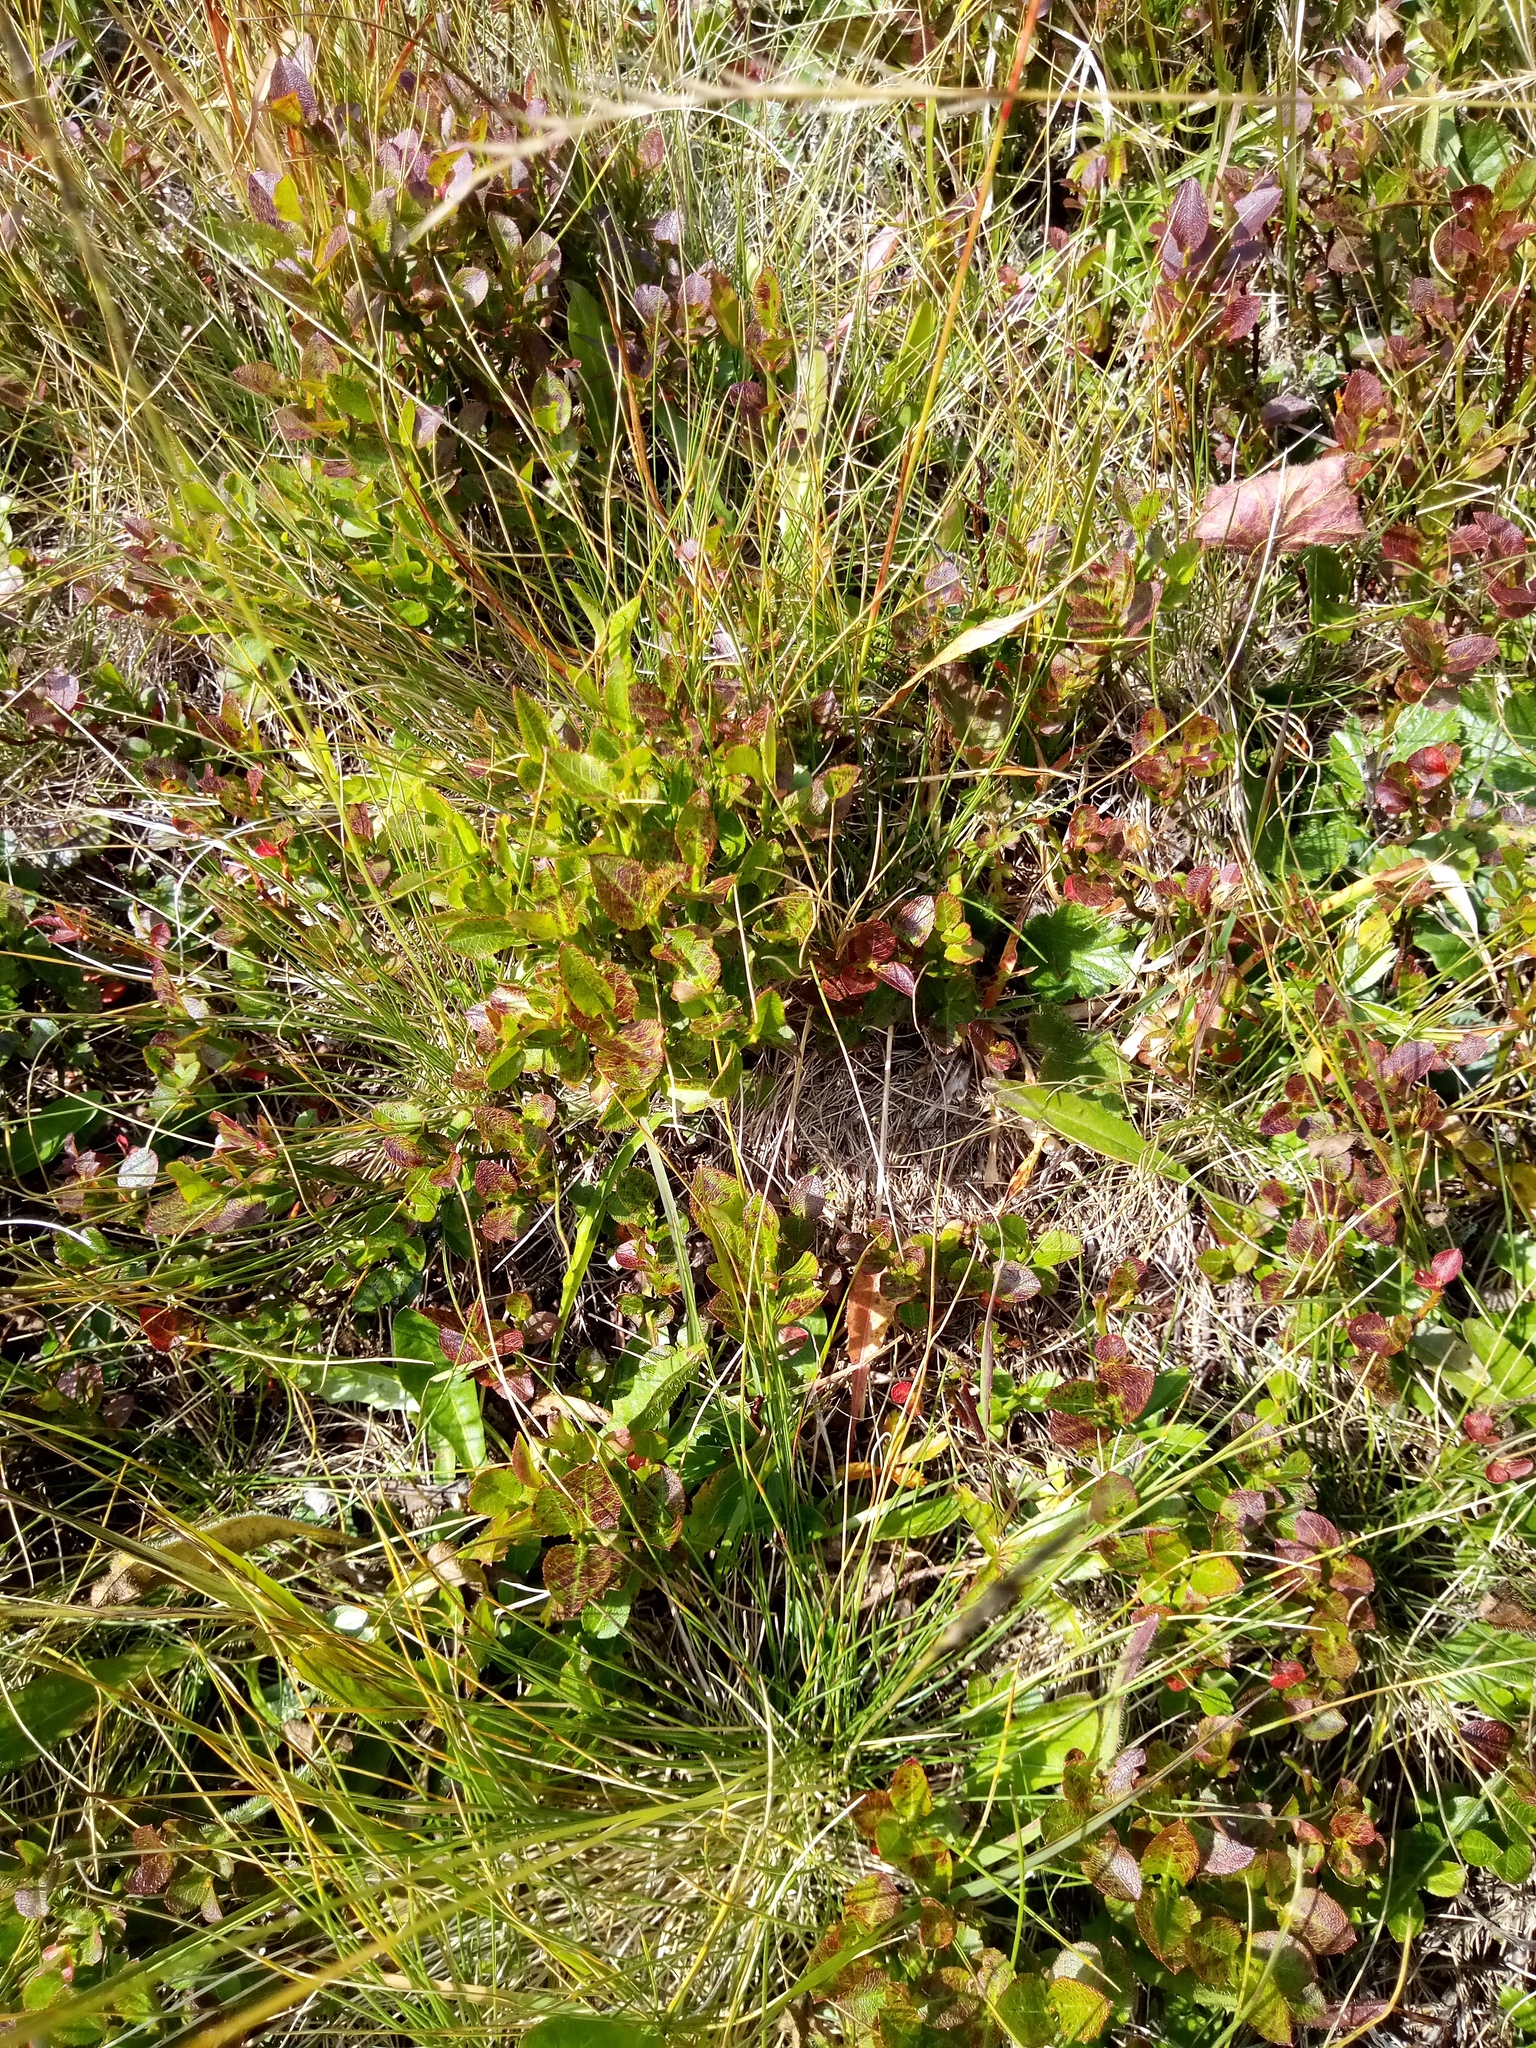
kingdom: Plantae
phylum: Tracheophyta
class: Magnoliopsida
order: Ericales
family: Ericaceae
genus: Vaccinium
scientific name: Vaccinium myrtillus
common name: Bilberry
